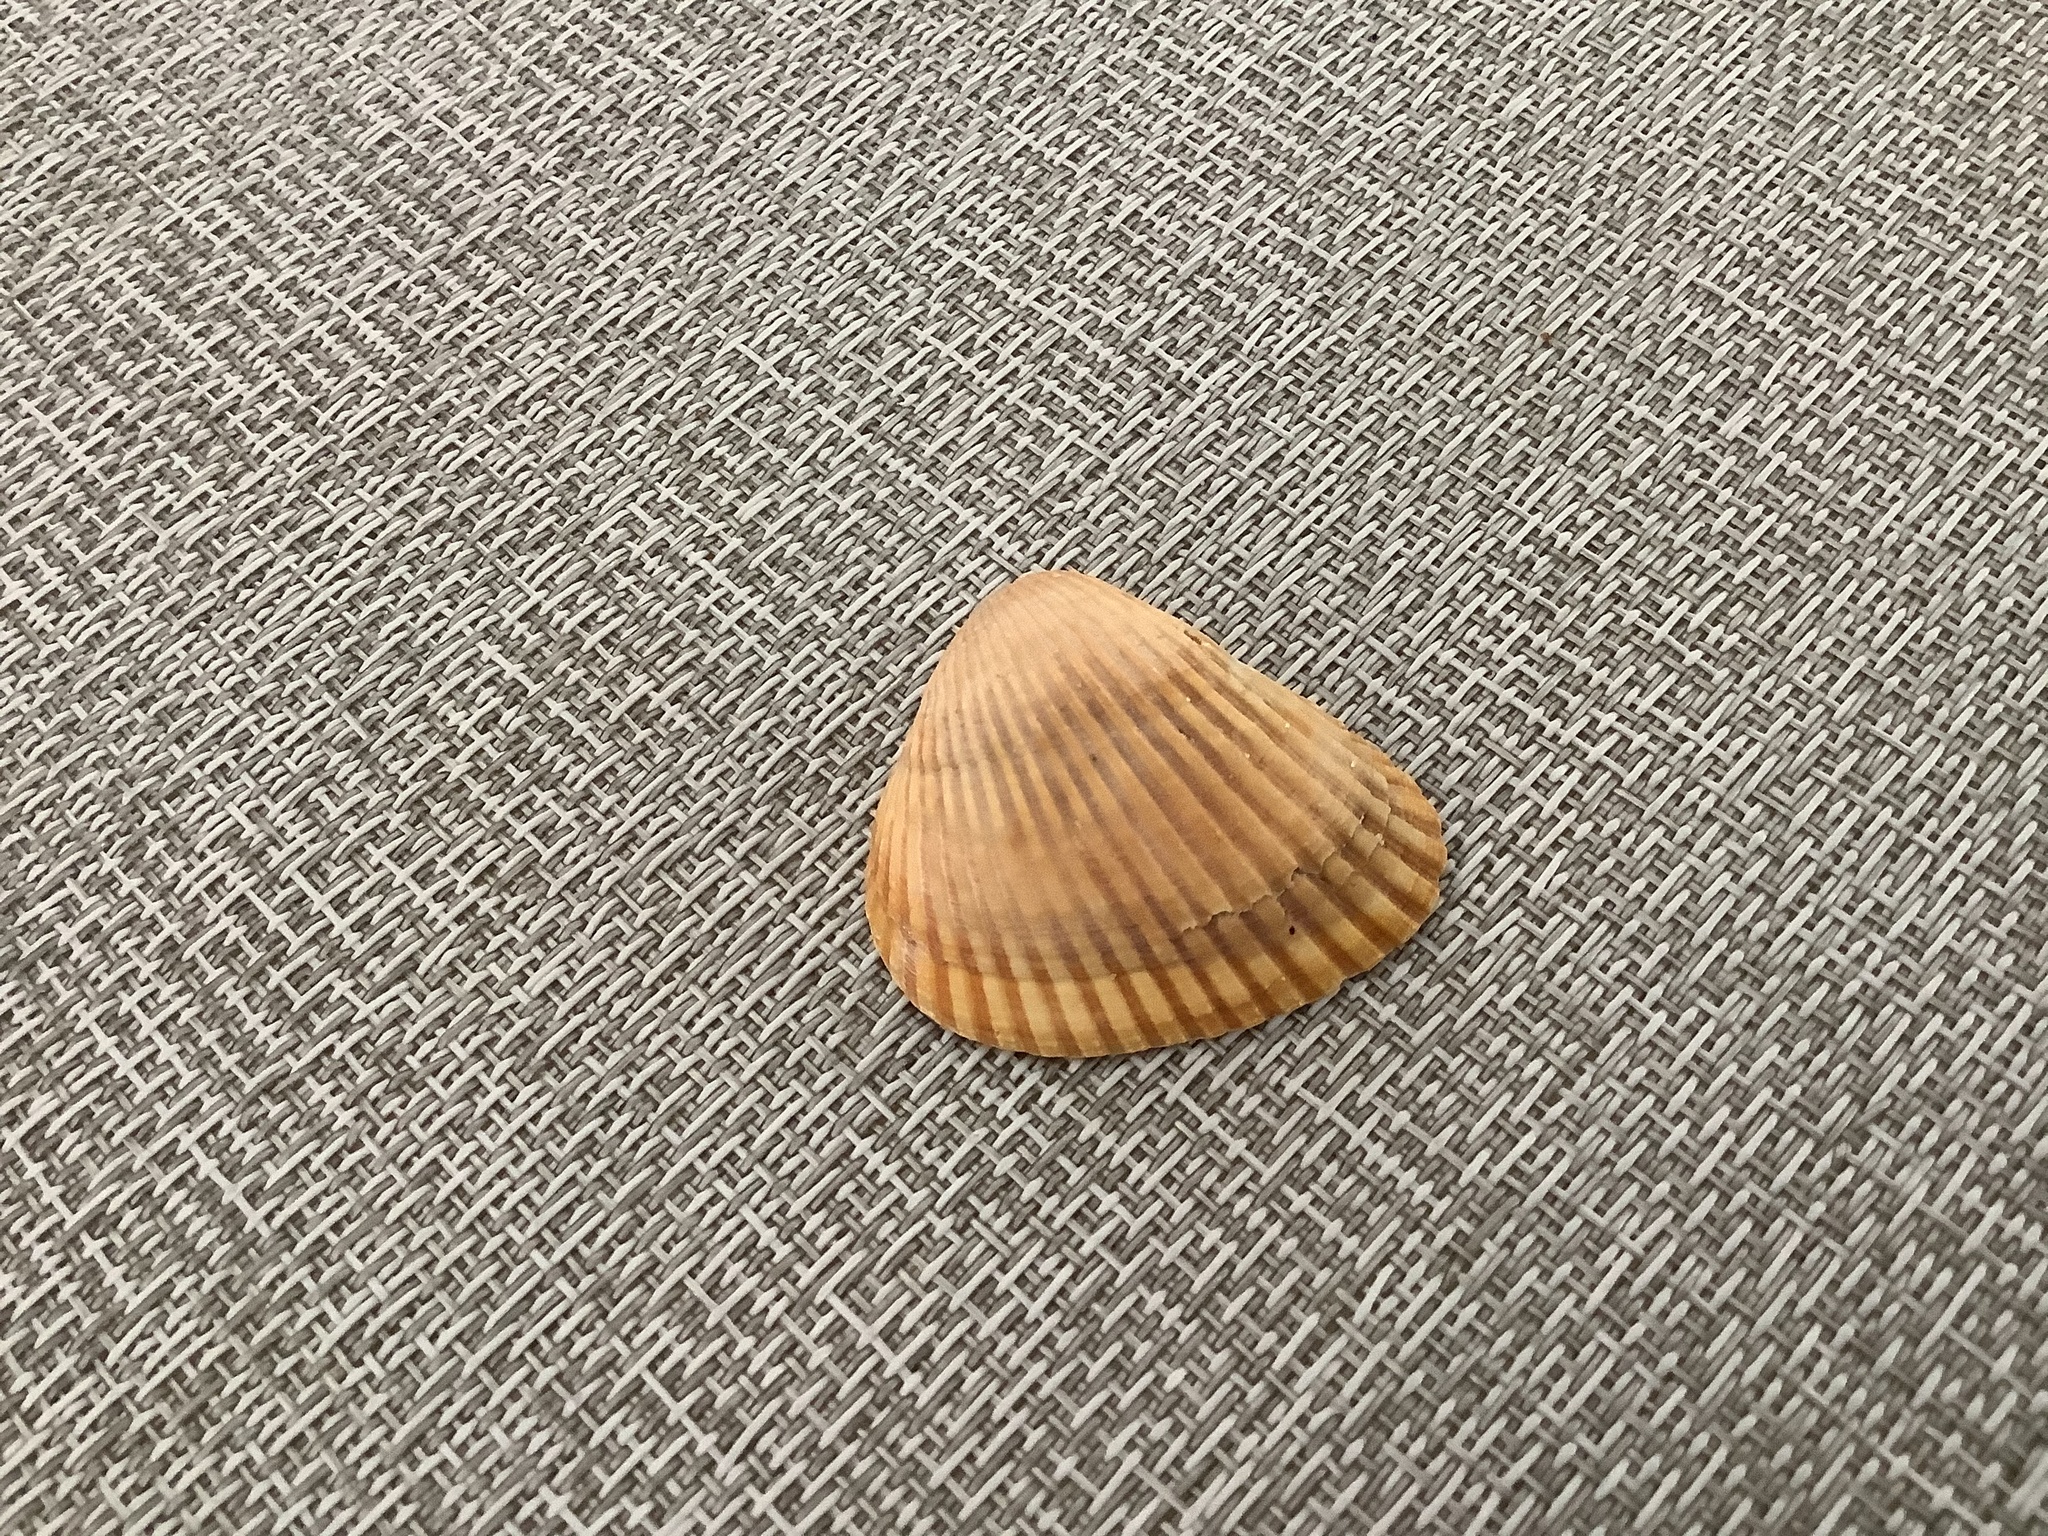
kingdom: Animalia
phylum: Mollusca
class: Bivalvia
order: Arcida
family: Noetiidae
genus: Noetia
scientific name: Noetia ponderosa
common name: Ponderous ark
